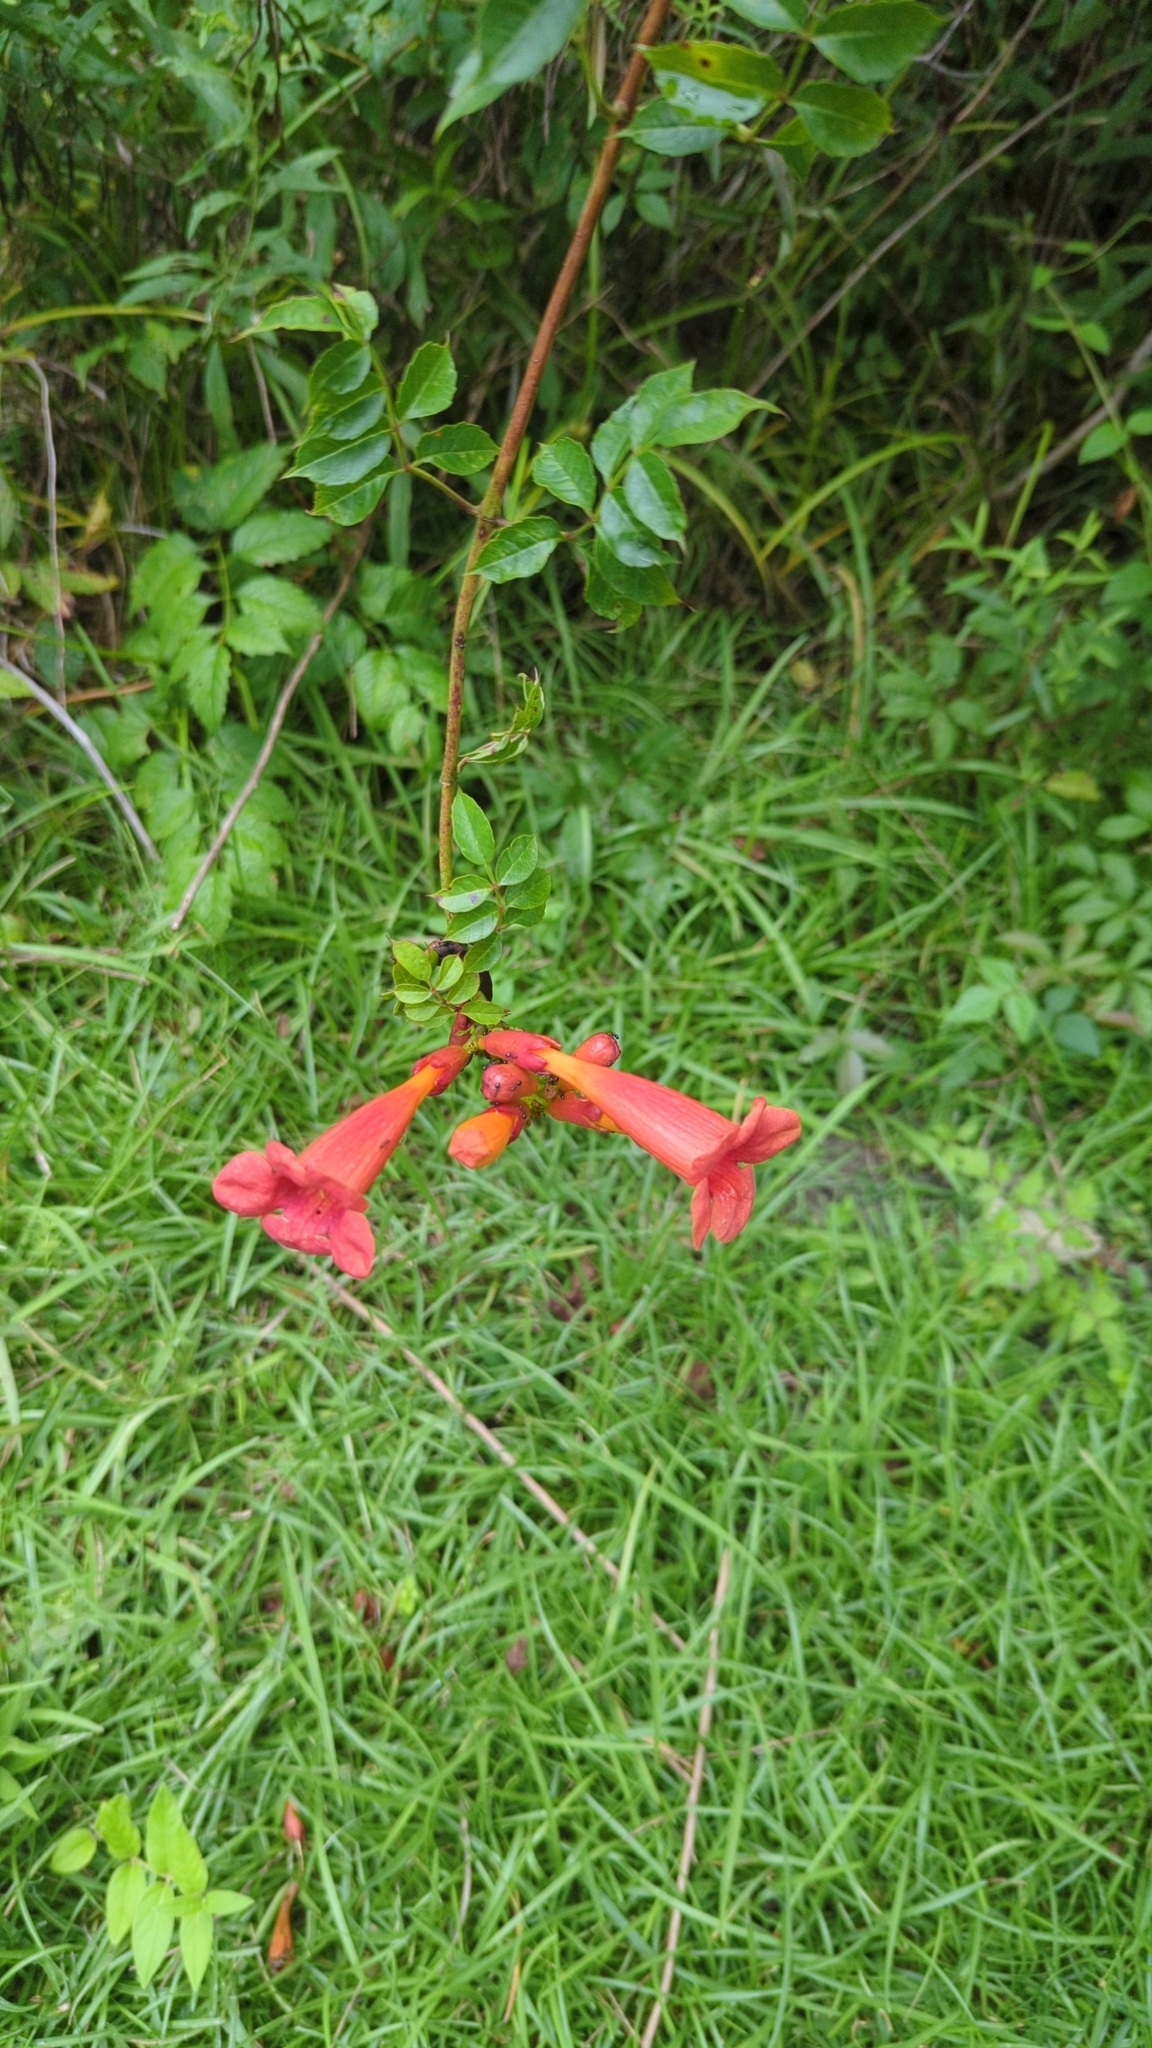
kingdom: Plantae
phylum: Tracheophyta
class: Magnoliopsida
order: Lamiales
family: Bignoniaceae
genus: Campsis
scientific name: Campsis radicans
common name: Trumpet-creeper
